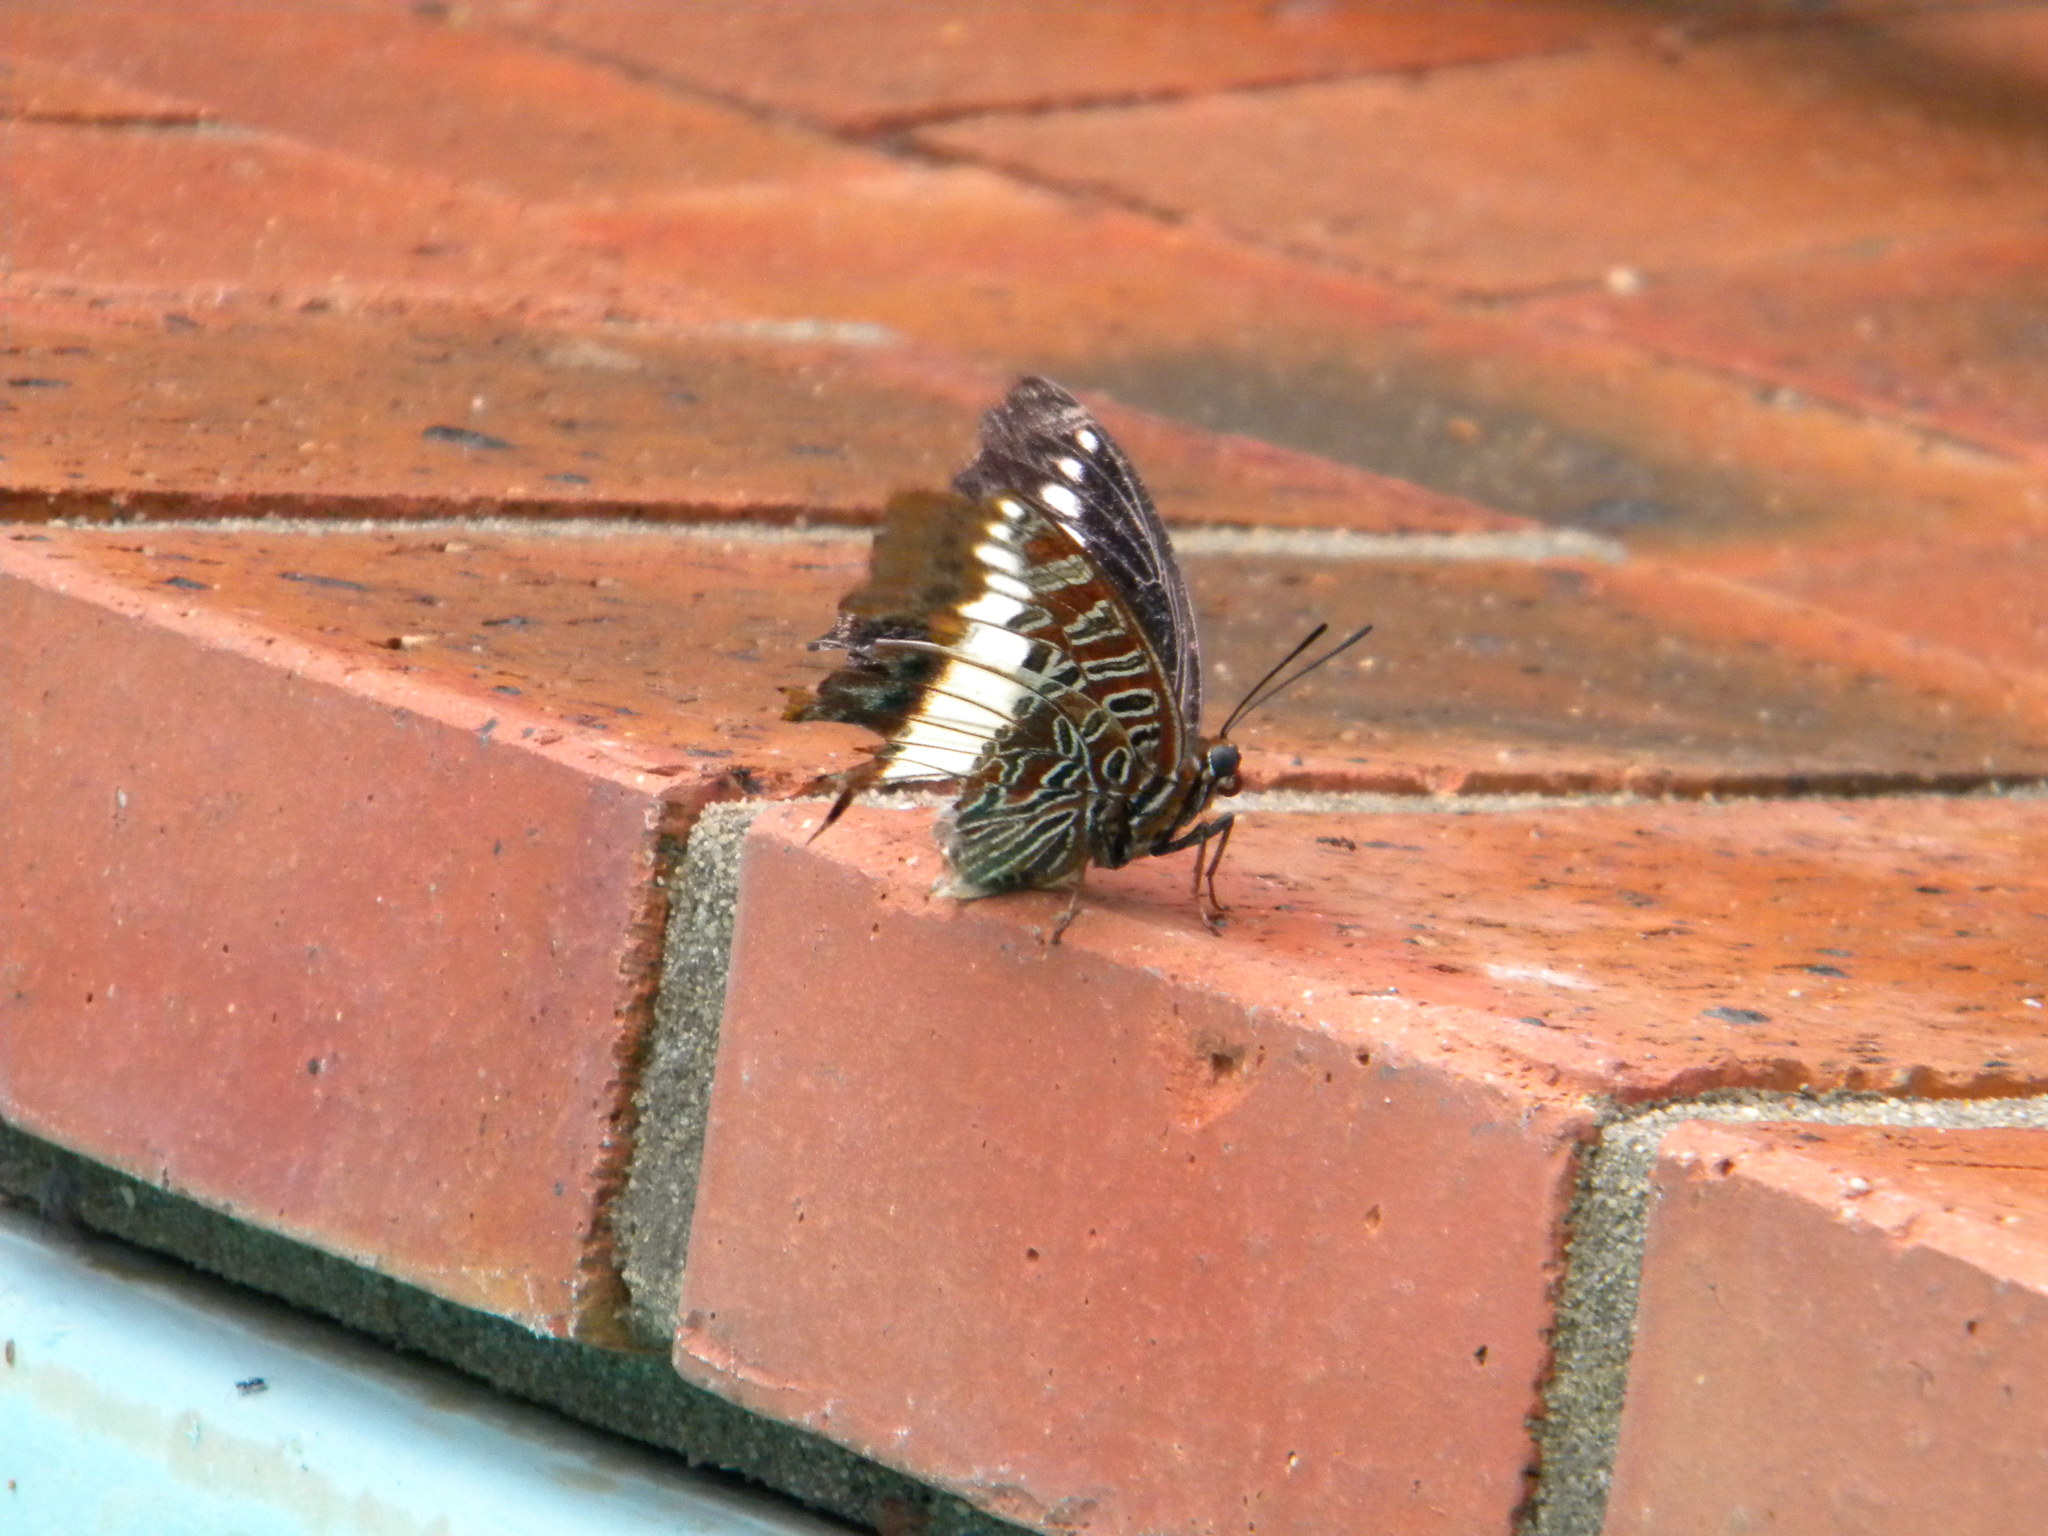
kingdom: Animalia
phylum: Arthropoda
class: Insecta
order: Lepidoptera
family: Nymphalidae
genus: Charaxes
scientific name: Charaxes brutus
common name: White-barred charaxes
